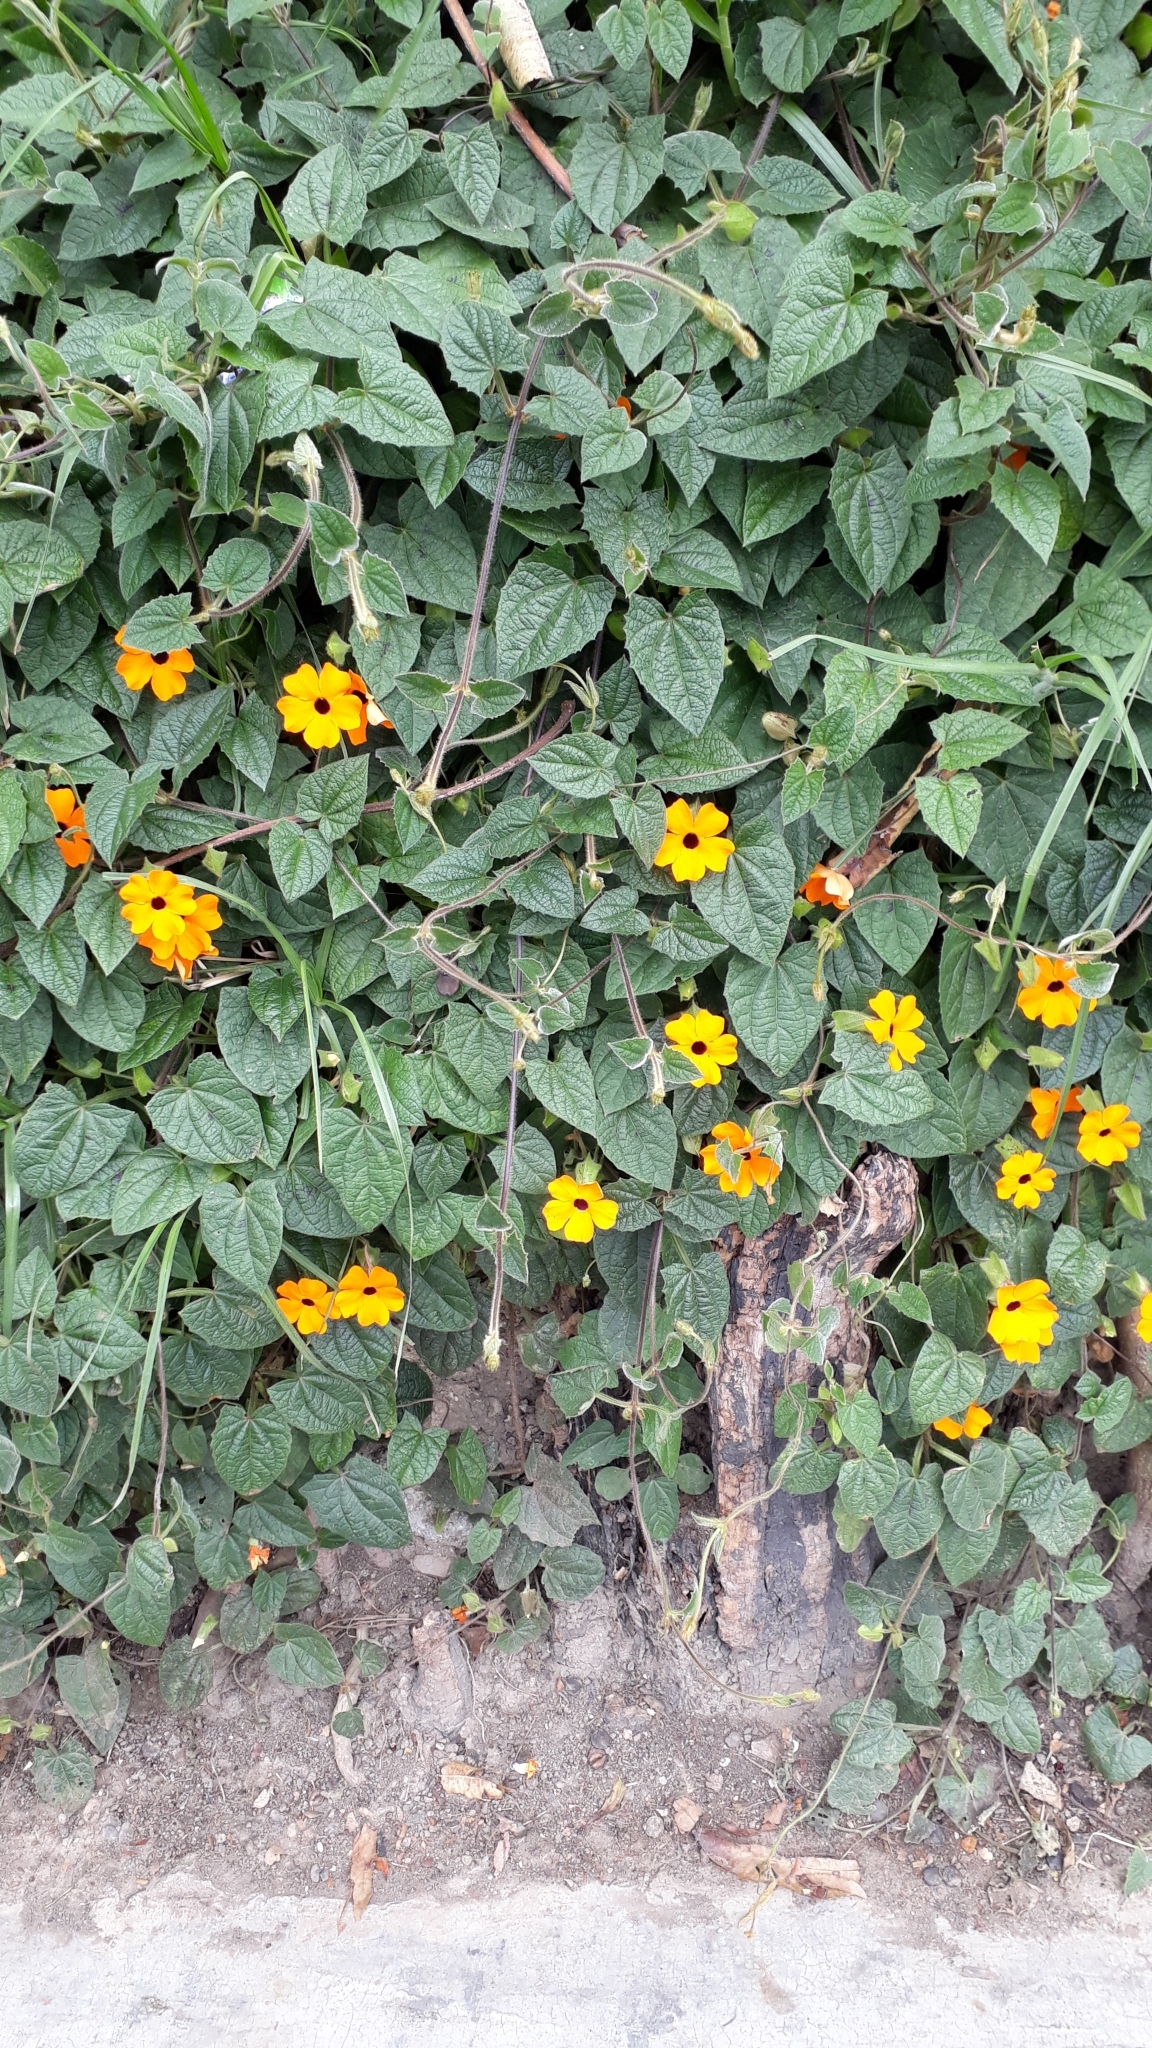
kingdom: Plantae
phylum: Tracheophyta
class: Magnoliopsida
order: Lamiales
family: Acanthaceae
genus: Thunbergia
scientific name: Thunbergia alata
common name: Blackeyed susan vine
